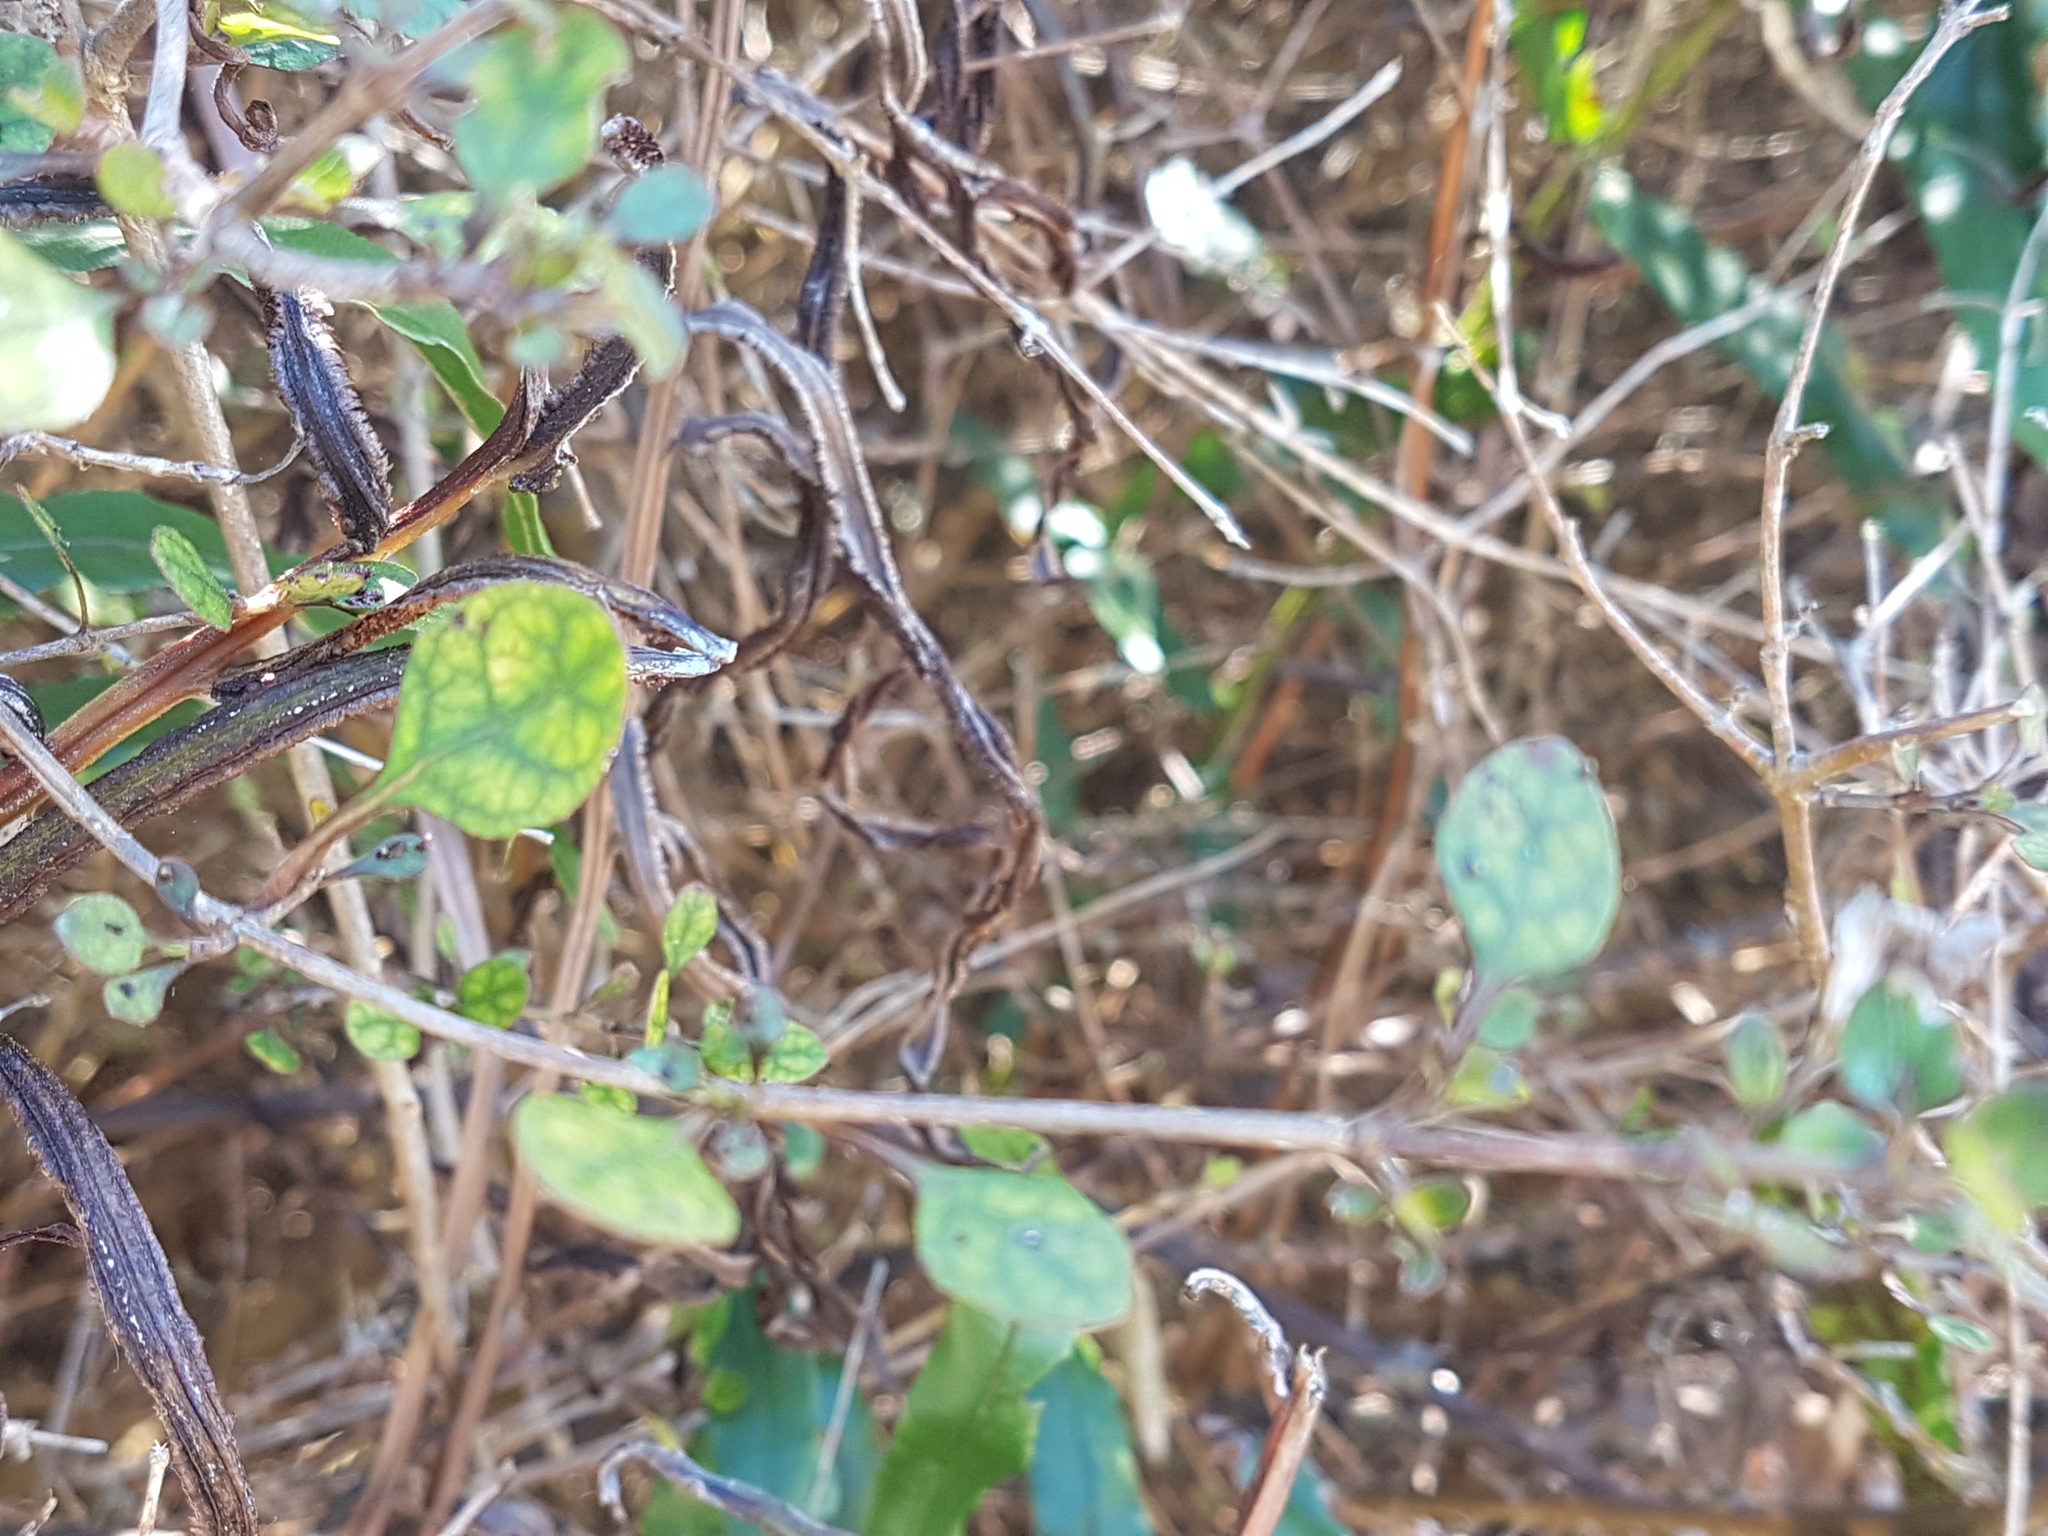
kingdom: Plantae
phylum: Tracheophyta
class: Magnoliopsida
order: Gentianales
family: Rubiaceae
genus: Coprosma
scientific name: Coprosma tenuicaulis
